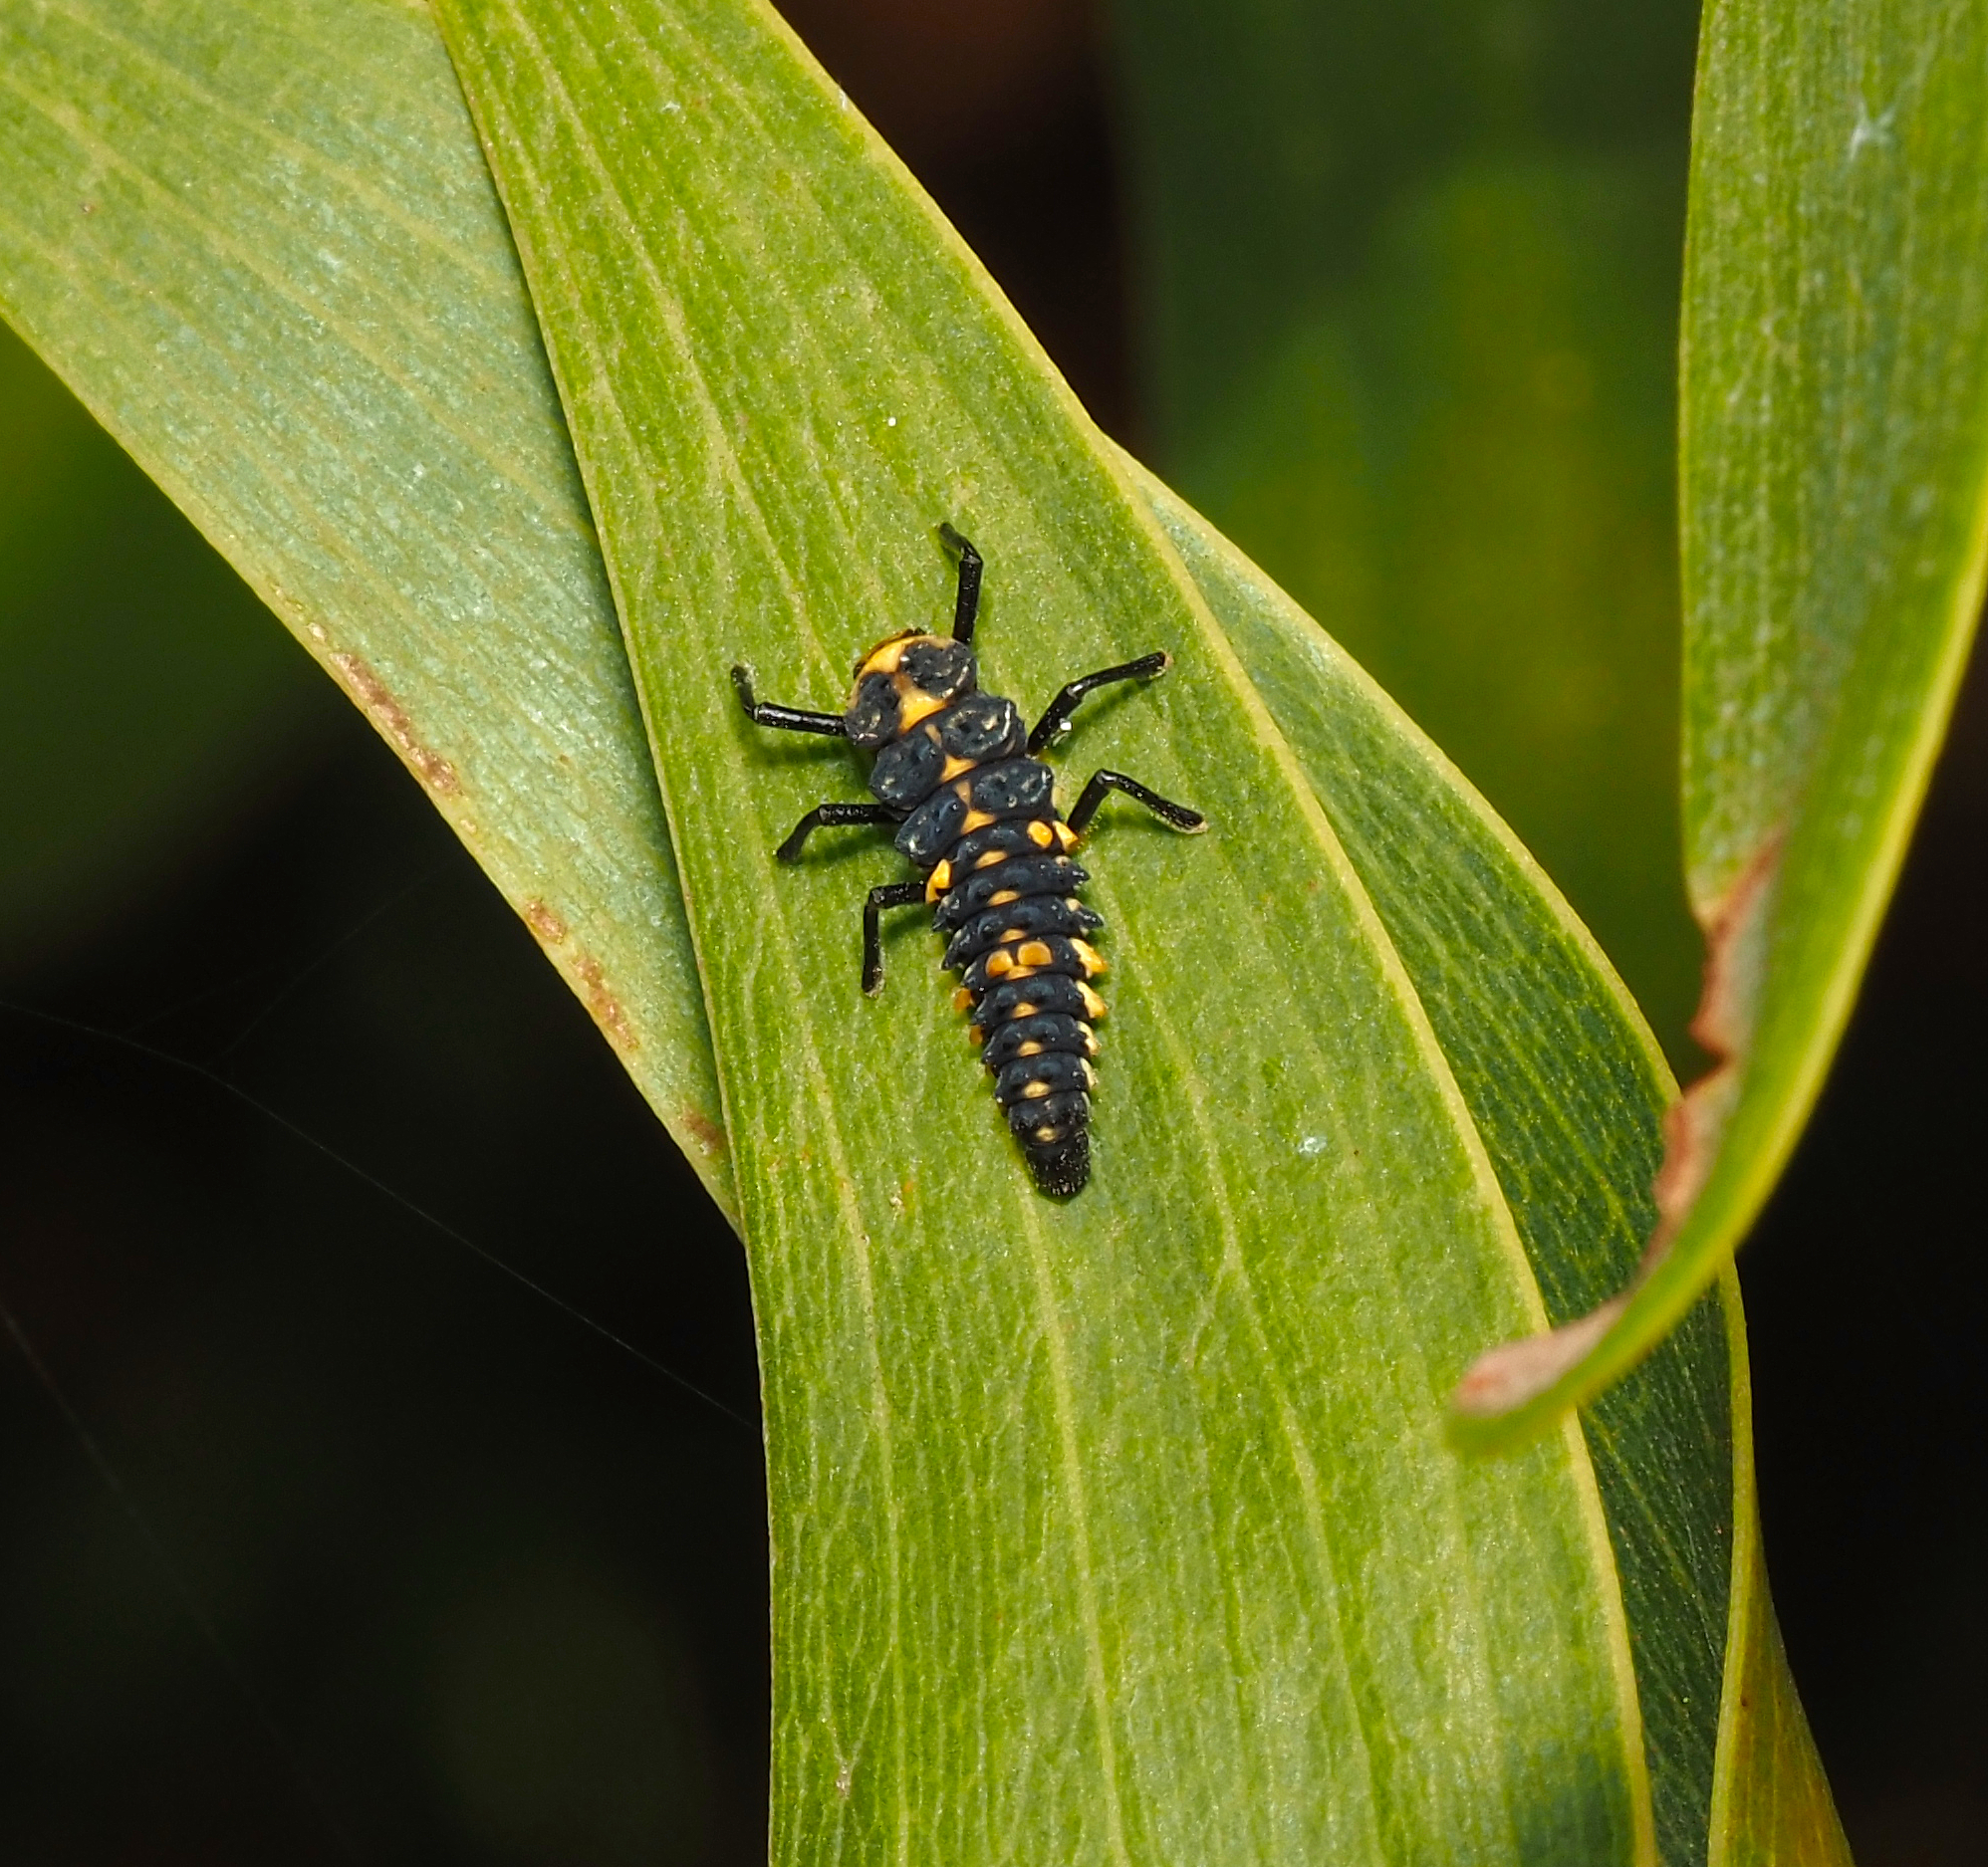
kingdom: Animalia
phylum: Arthropoda
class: Insecta
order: Coleoptera
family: Coccinellidae
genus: Cleobora
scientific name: Cleobora
